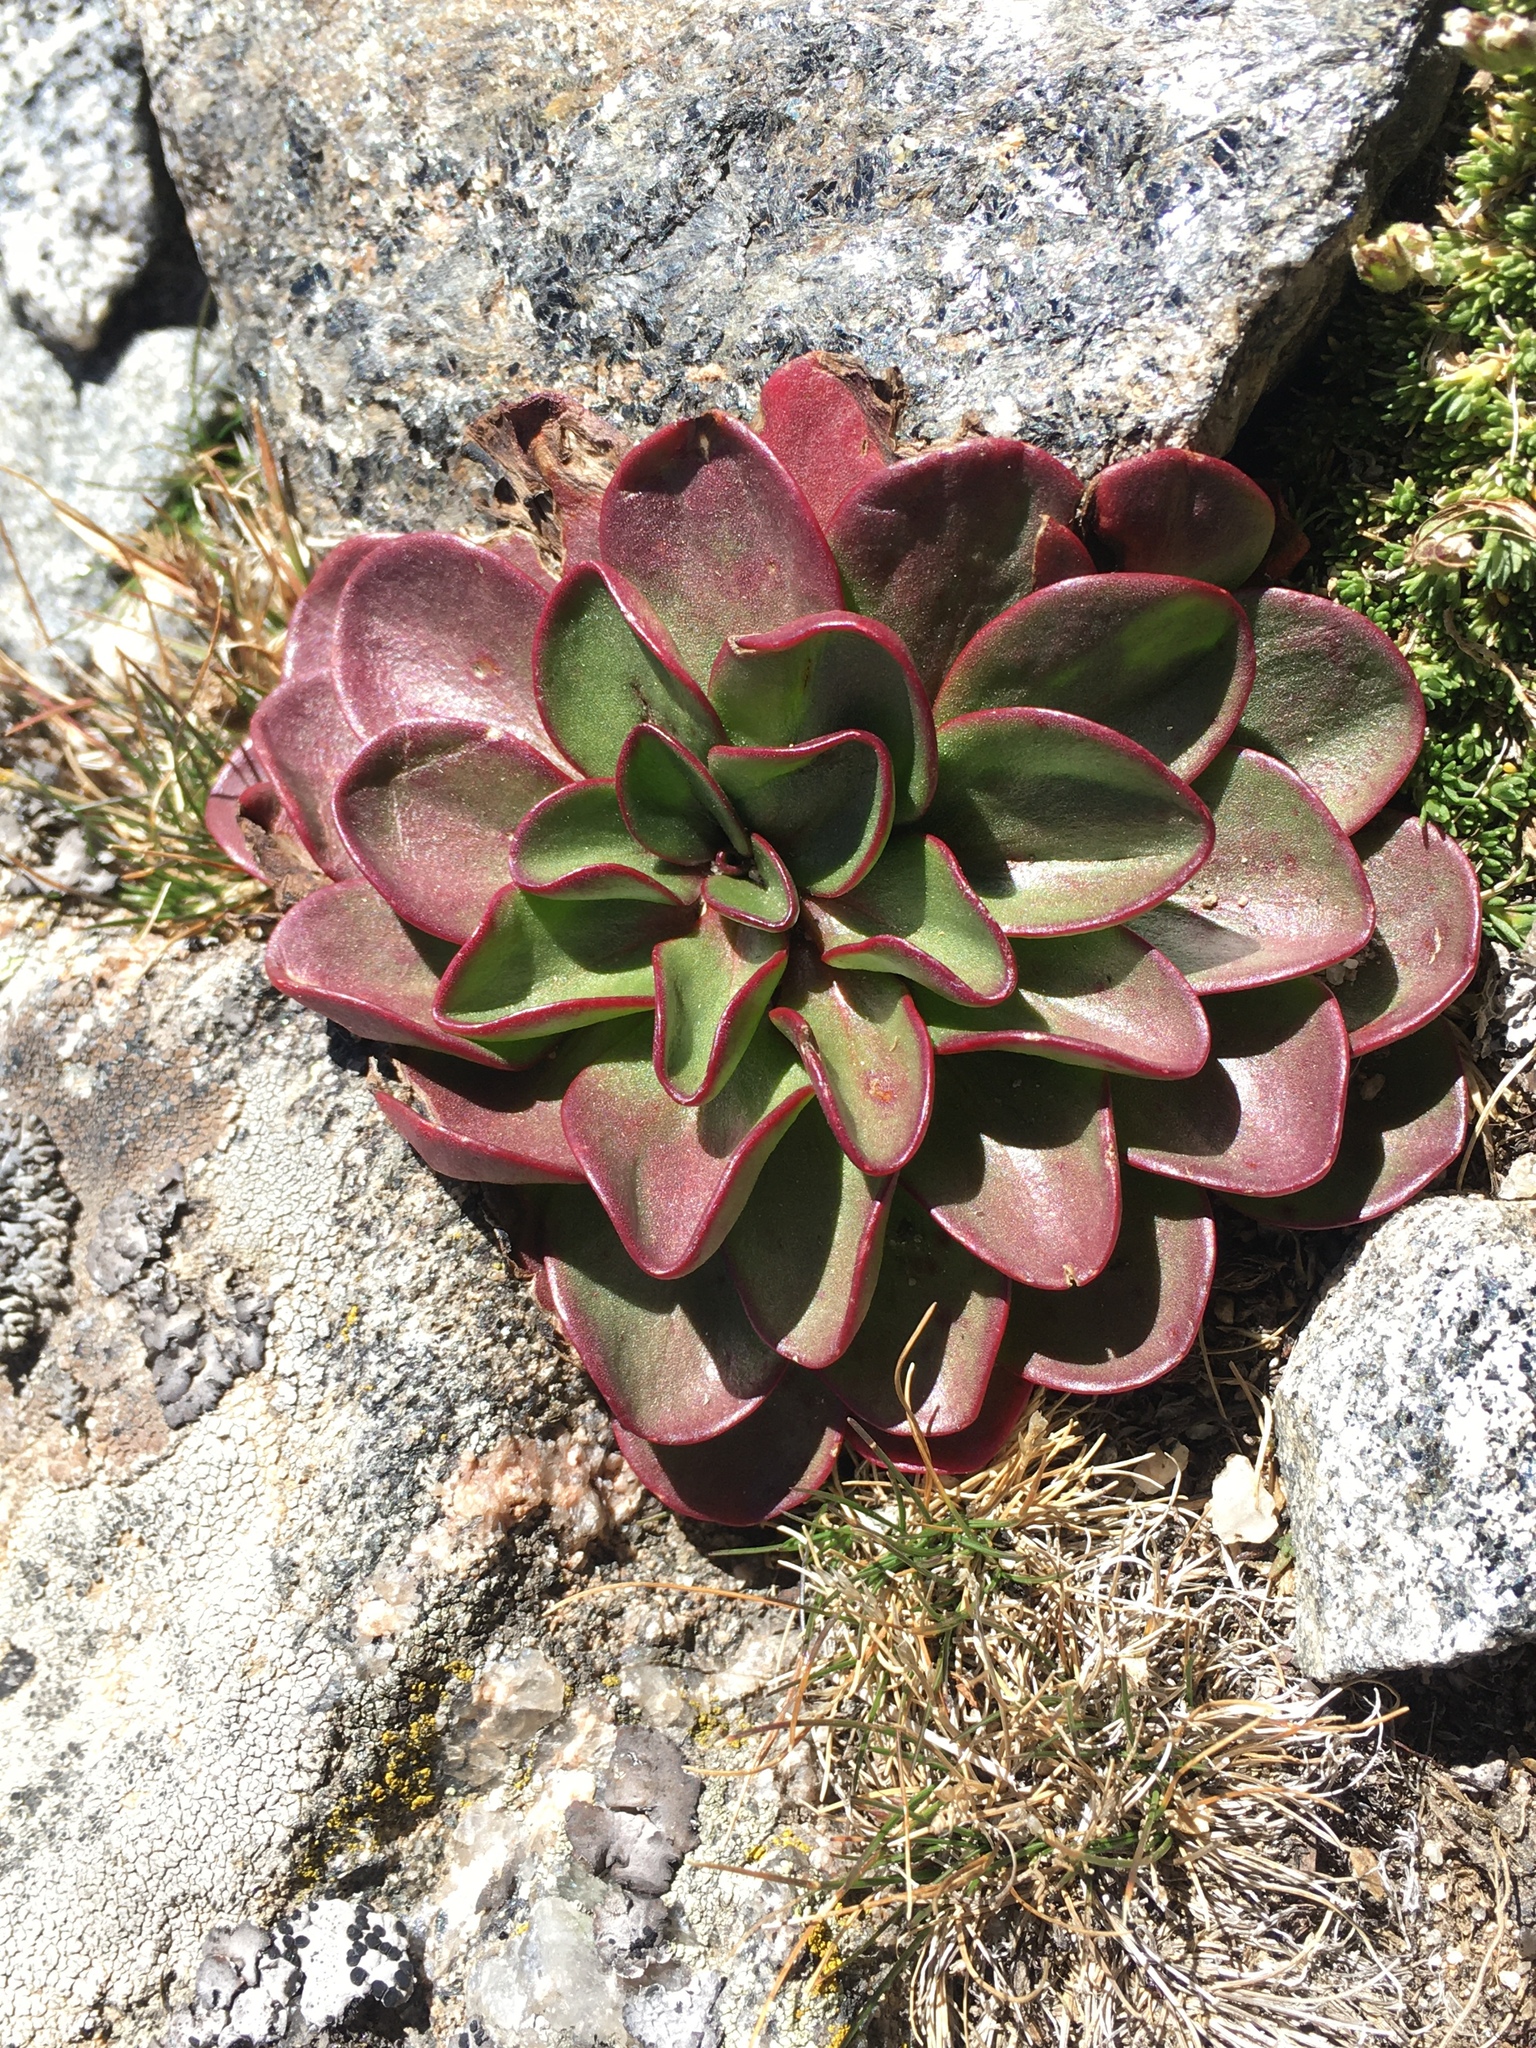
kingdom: Plantae
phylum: Tracheophyta
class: Magnoliopsida
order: Caryophyllales
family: Montiaceae
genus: Claytonia
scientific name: Claytonia megarhiza
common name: Alpine spring beauty
